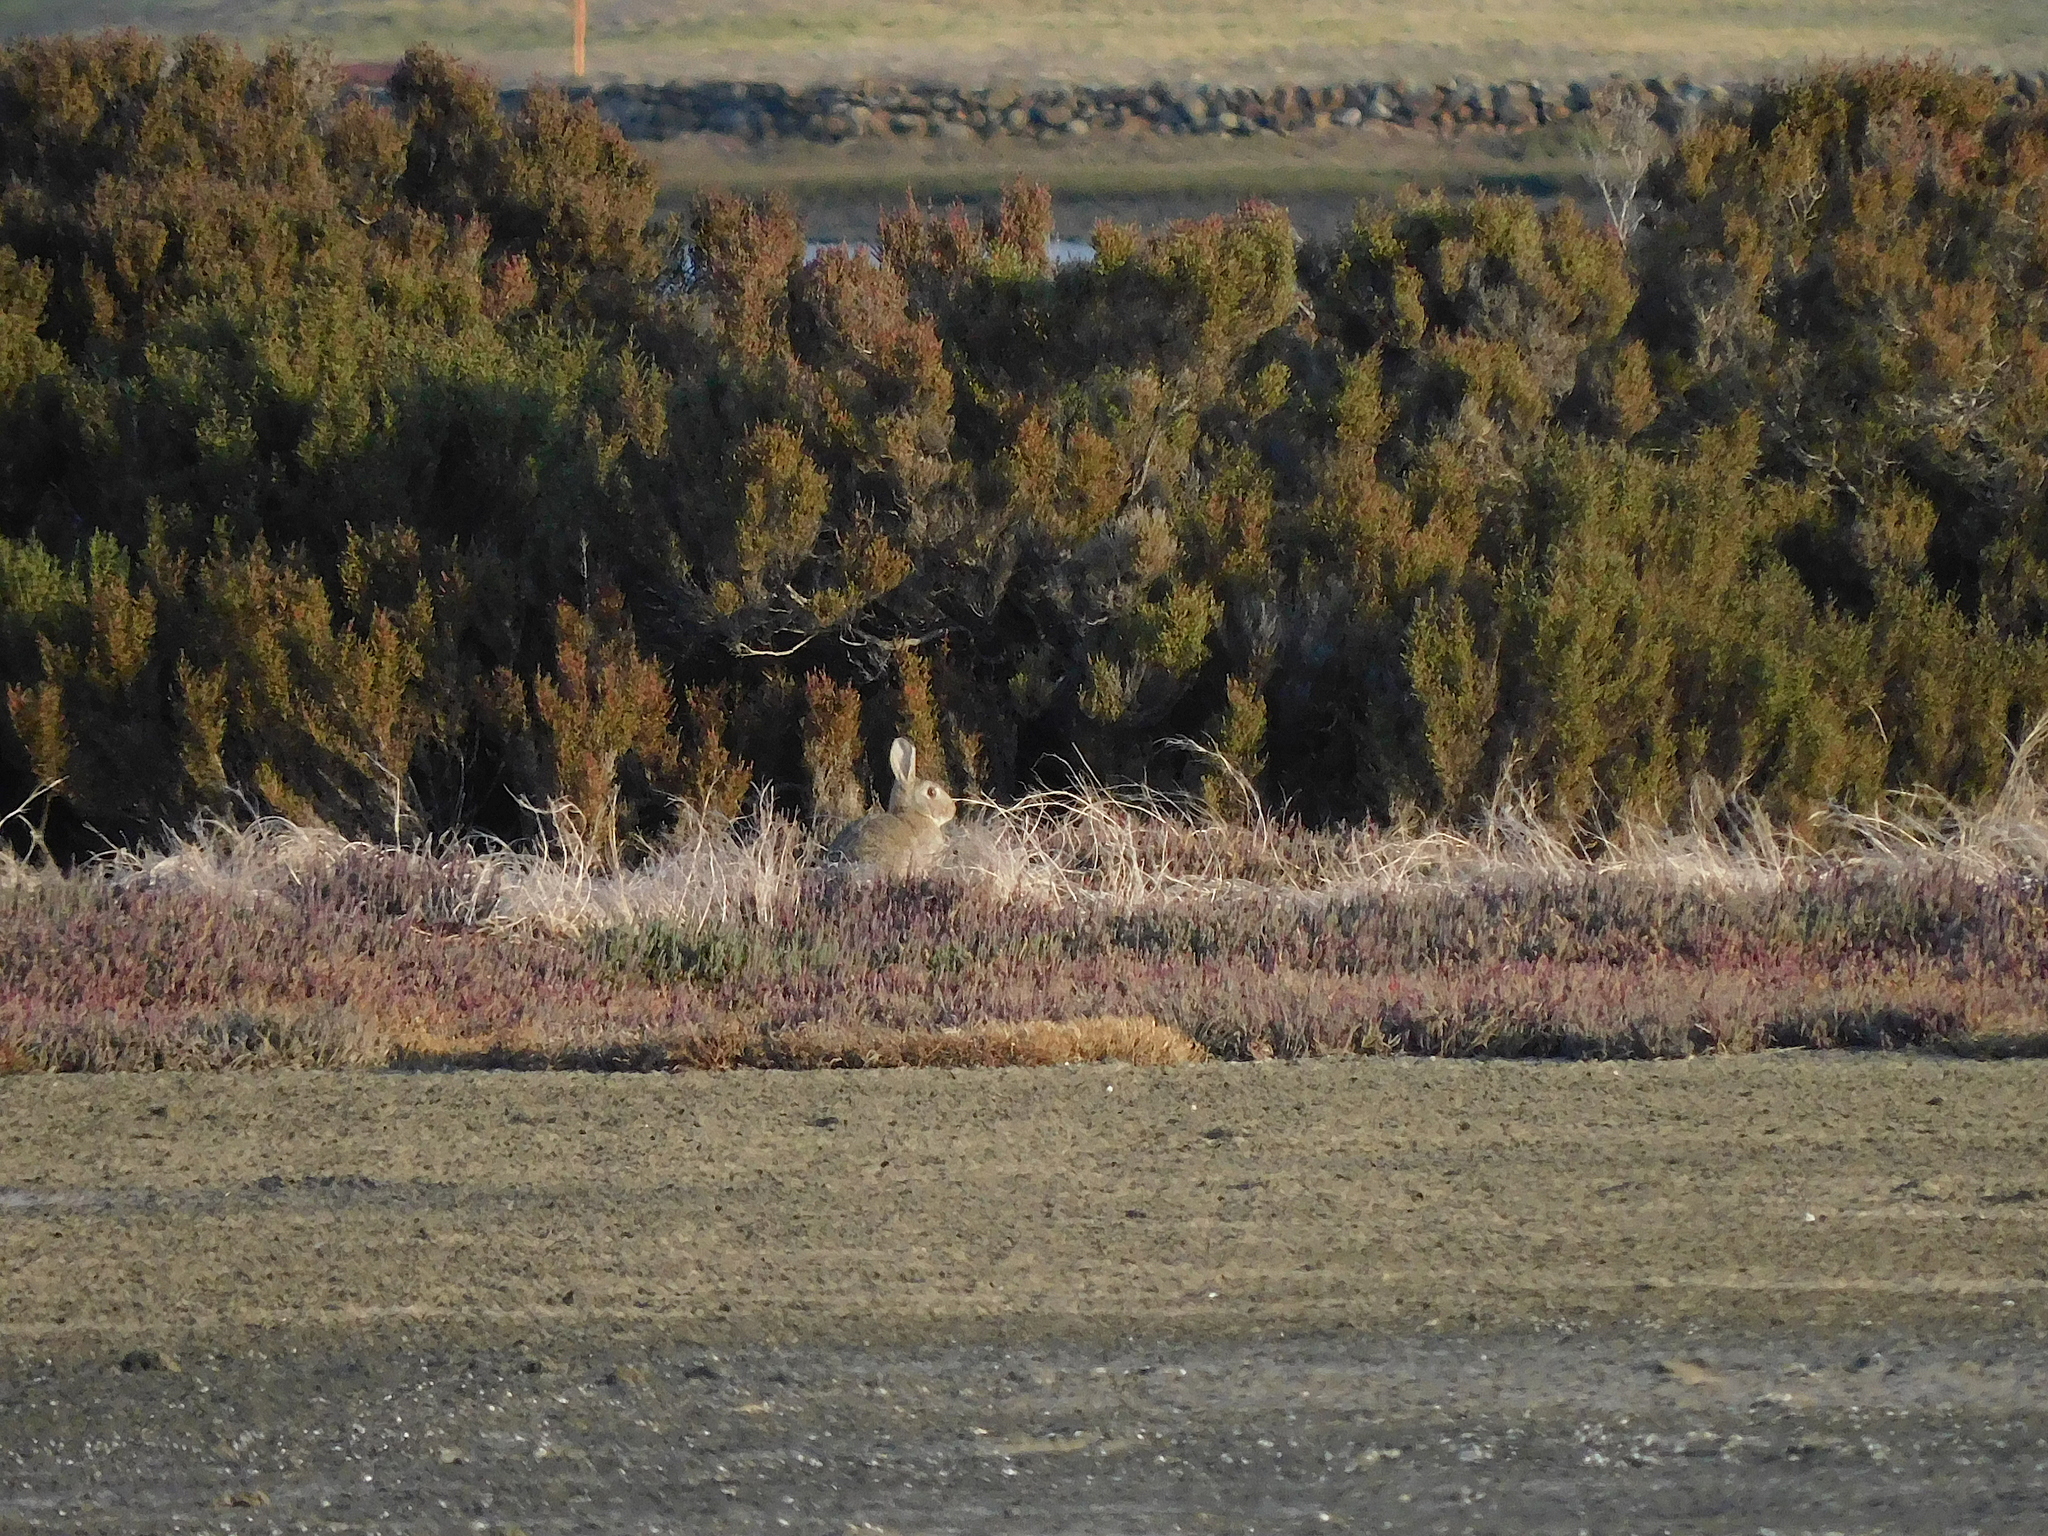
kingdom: Animalia
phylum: Chordata
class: Mammalia
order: Lagomorpha
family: Leporidae
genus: Oryctolagus
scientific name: Oryctolagus cuniculus
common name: European rabbit
